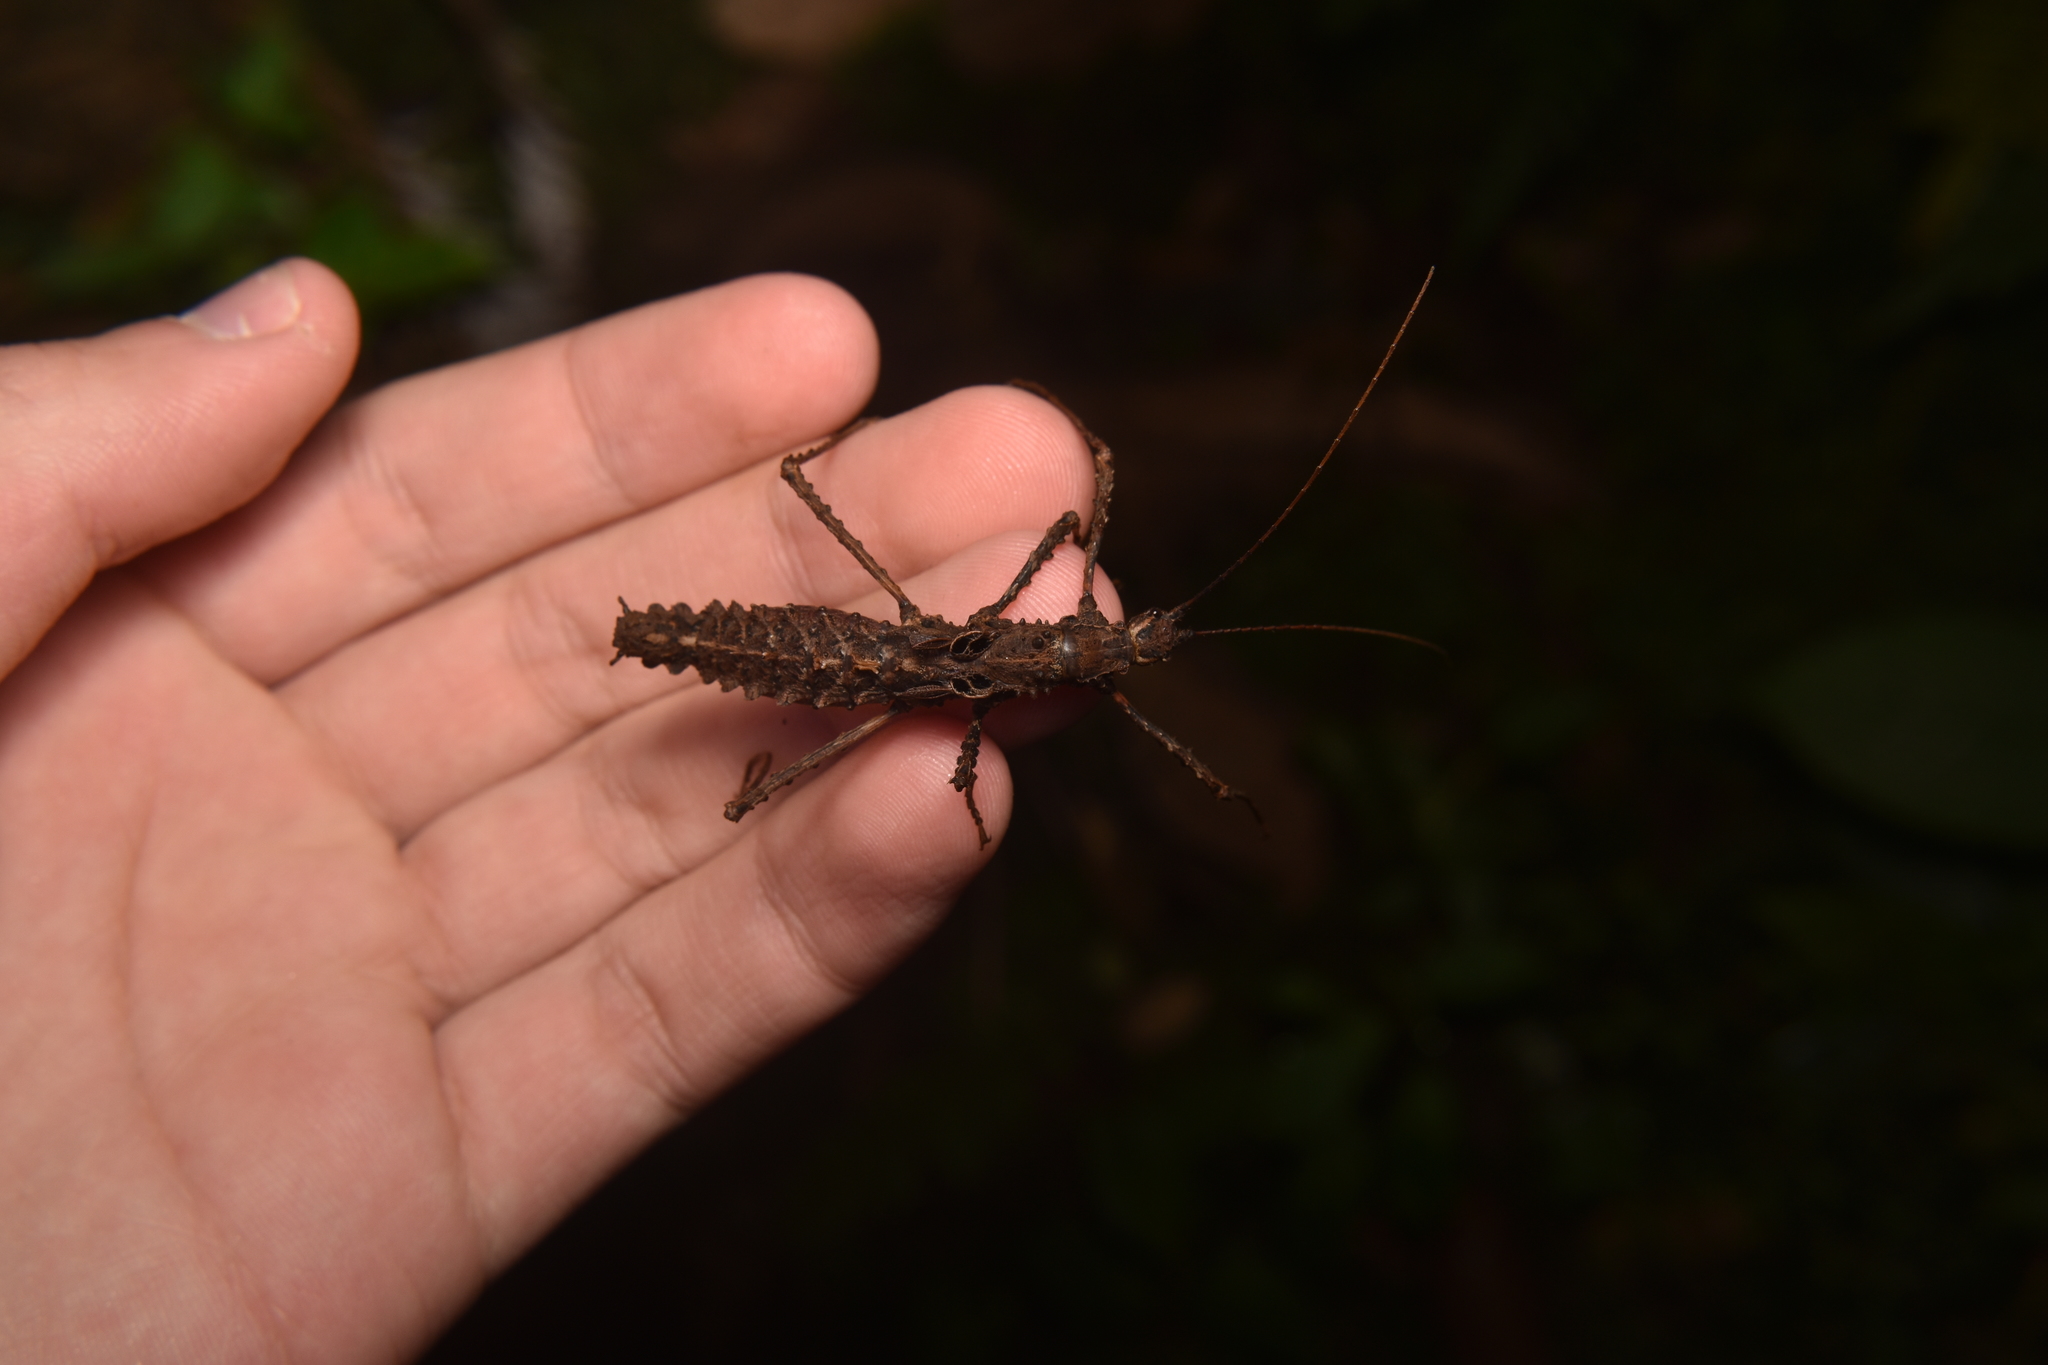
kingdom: Animalia
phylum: Arthropoda
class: Insecta
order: Phasmida
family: Pseudophasmatidae
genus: Ornatomorpha
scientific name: Ornatomorpha laciniatum
